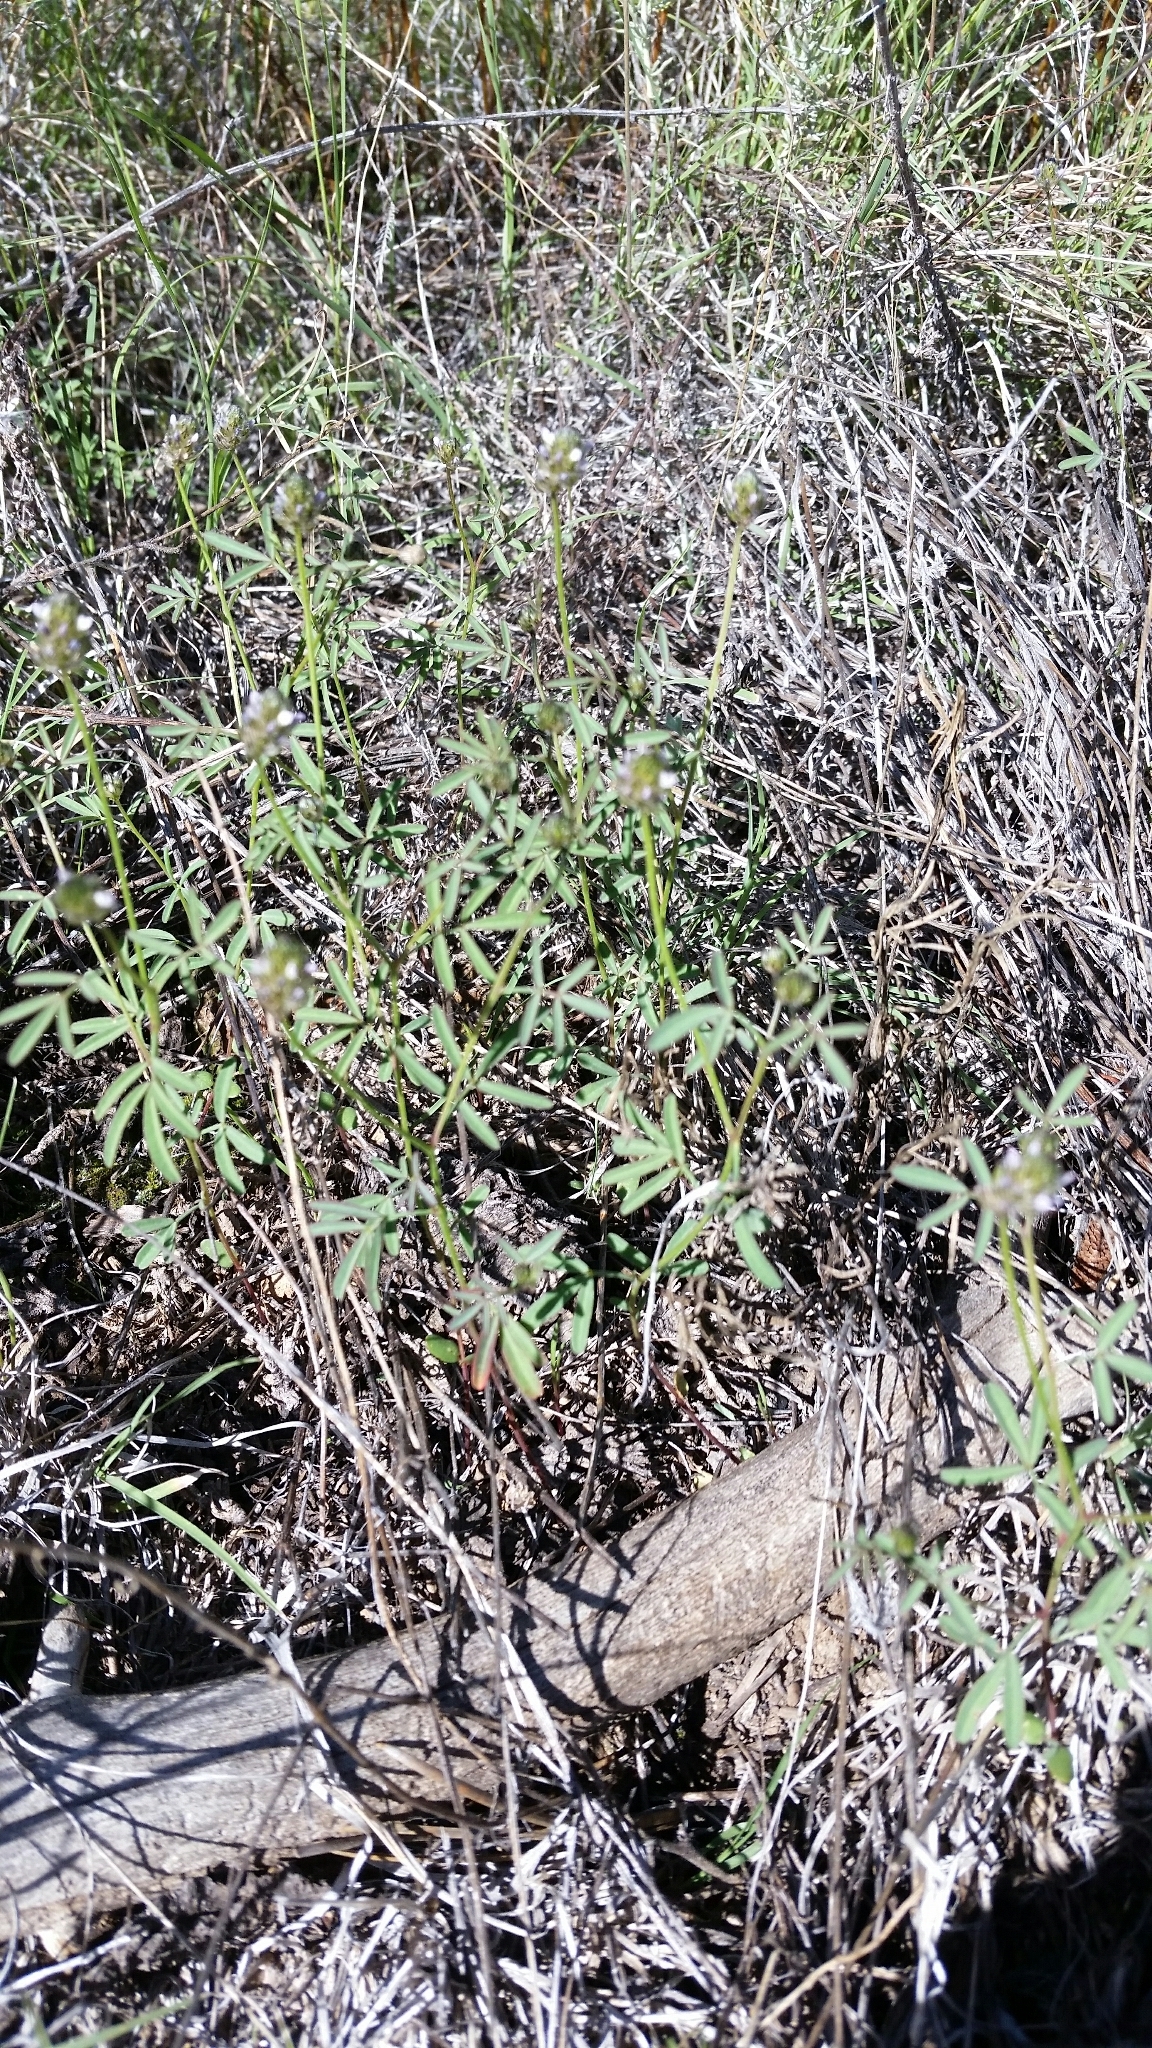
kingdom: Plantae
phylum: Tracheophyta
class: Magnoliopsida
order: Fabales
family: Fabaceae
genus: Dalea
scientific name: Dalea polygonoides
